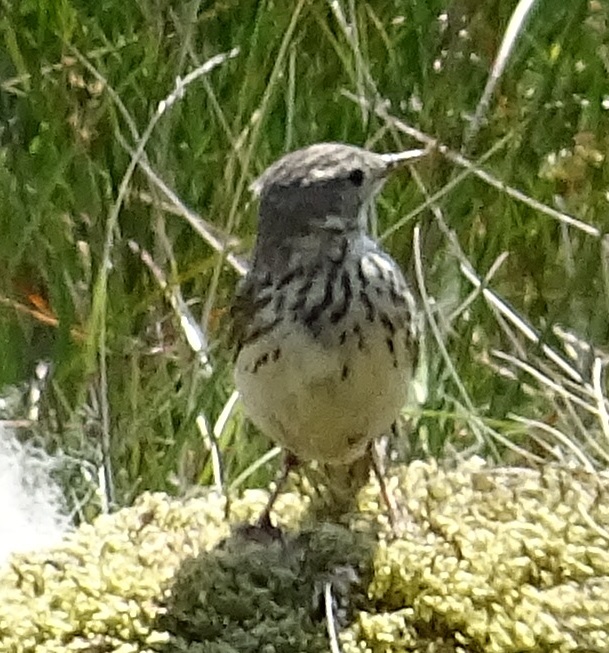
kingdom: Animalia
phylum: Chordata
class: Aves
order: Passeriformes
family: Motacillidae
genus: Anthus
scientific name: Anthus pratensis
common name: Meadow pipit
